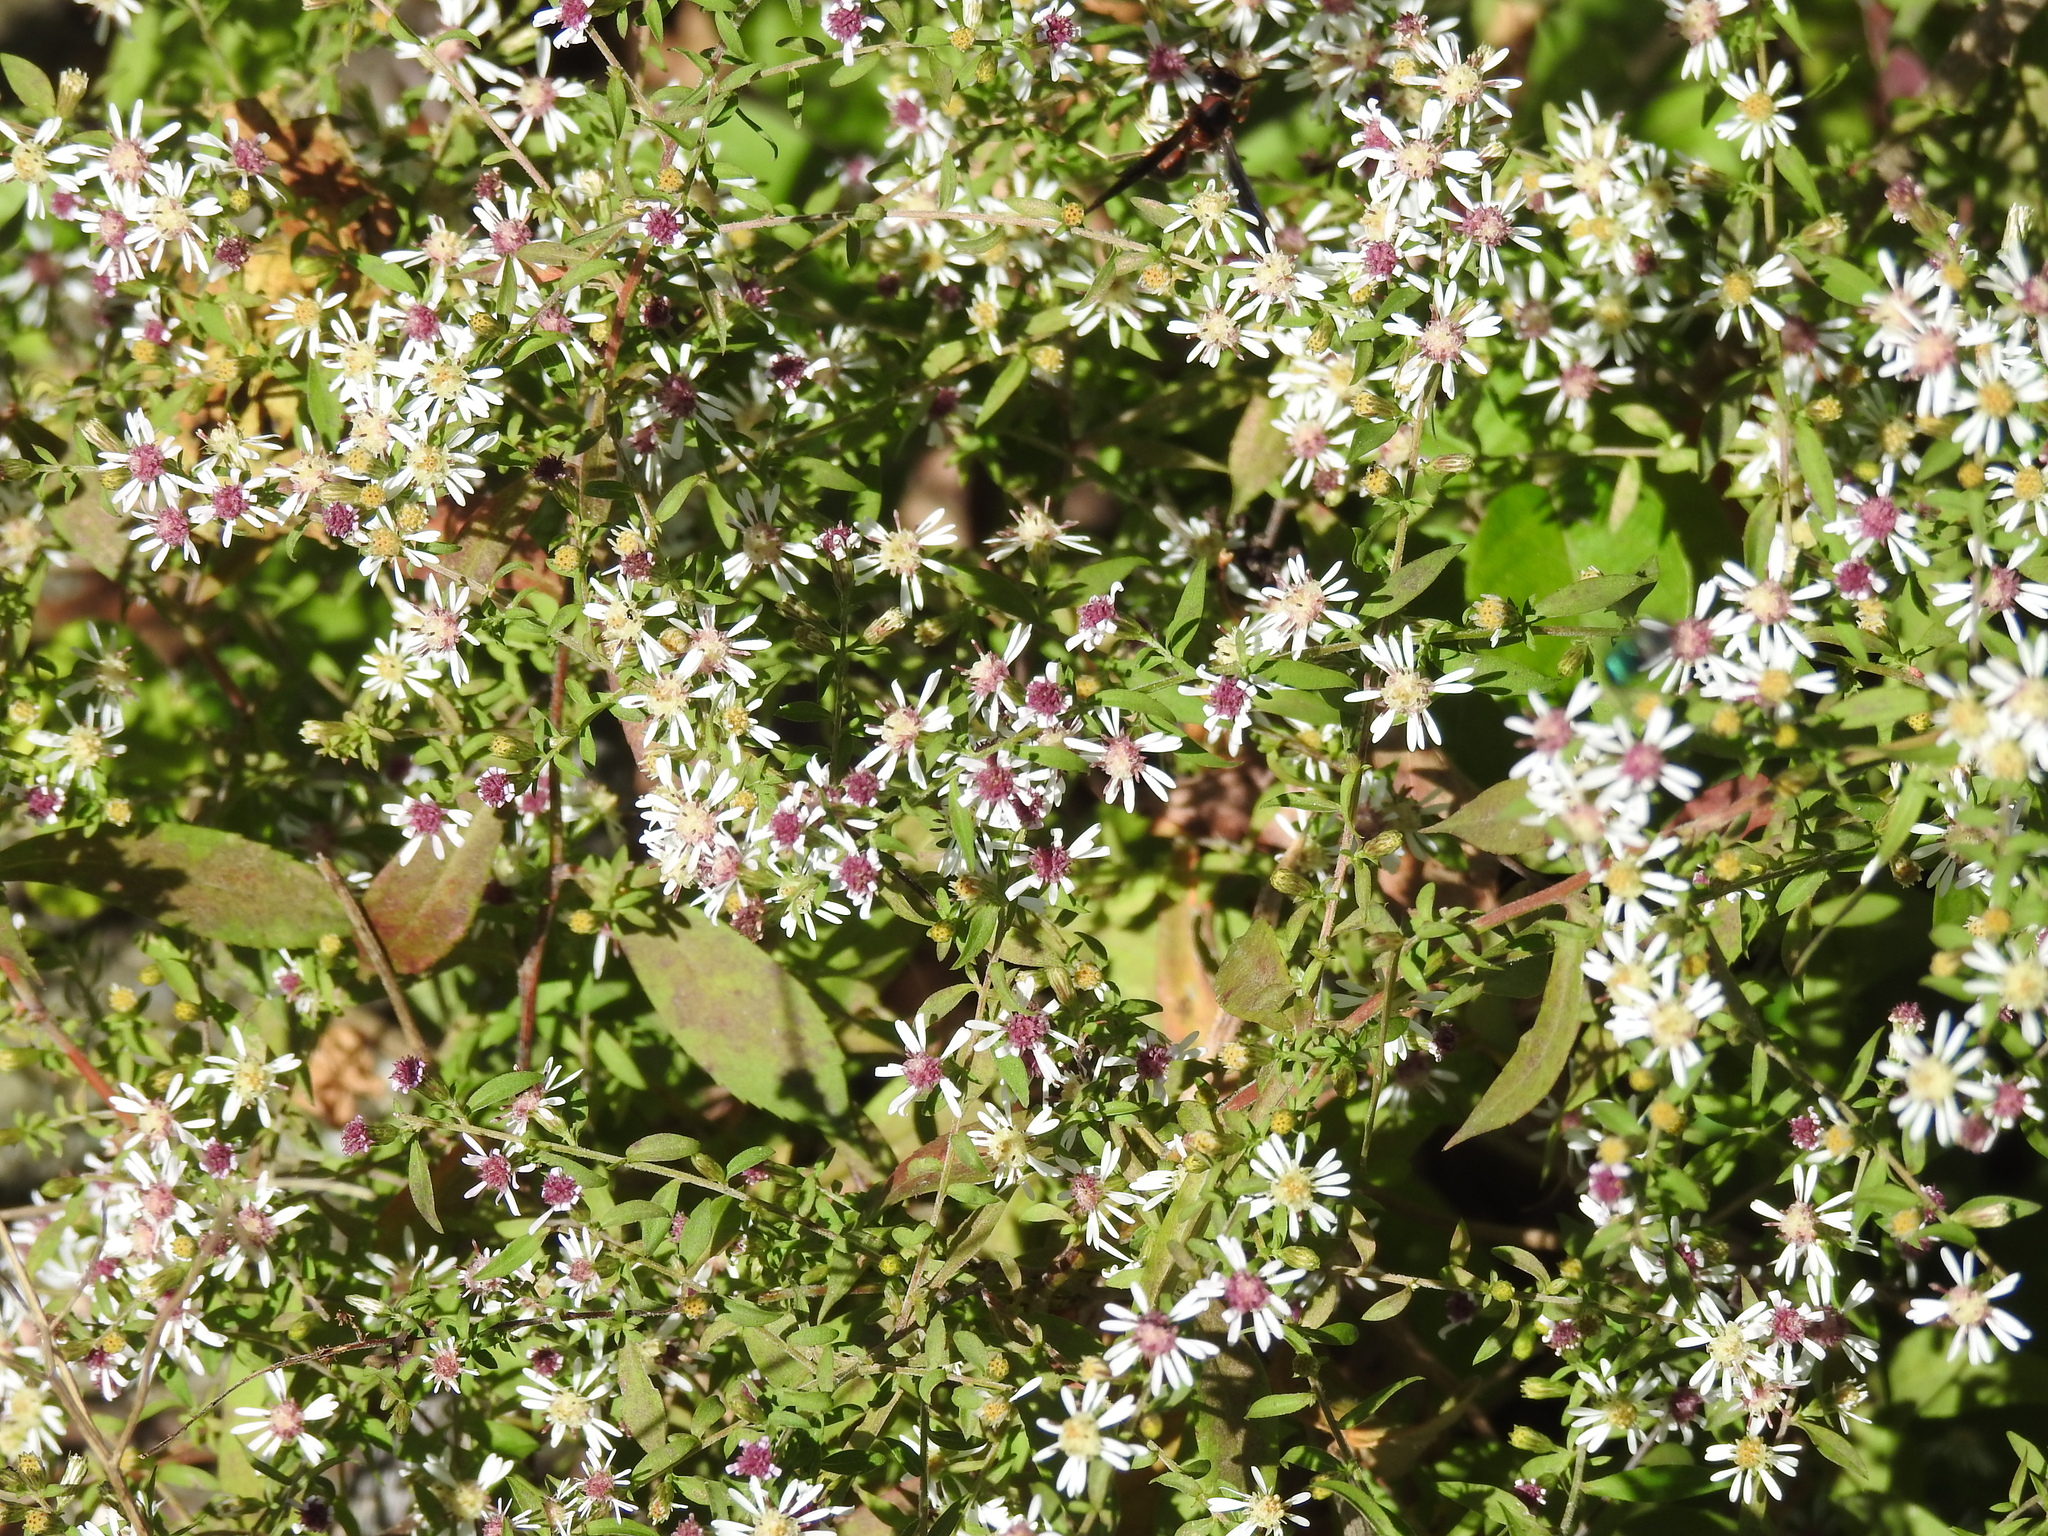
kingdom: Plantae
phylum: Tracheophyta
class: Magnoliopsida
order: Asterales
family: Asteraceae
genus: Symphyotrichum
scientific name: Symphyotrichum lateriflorum
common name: Calico aster
